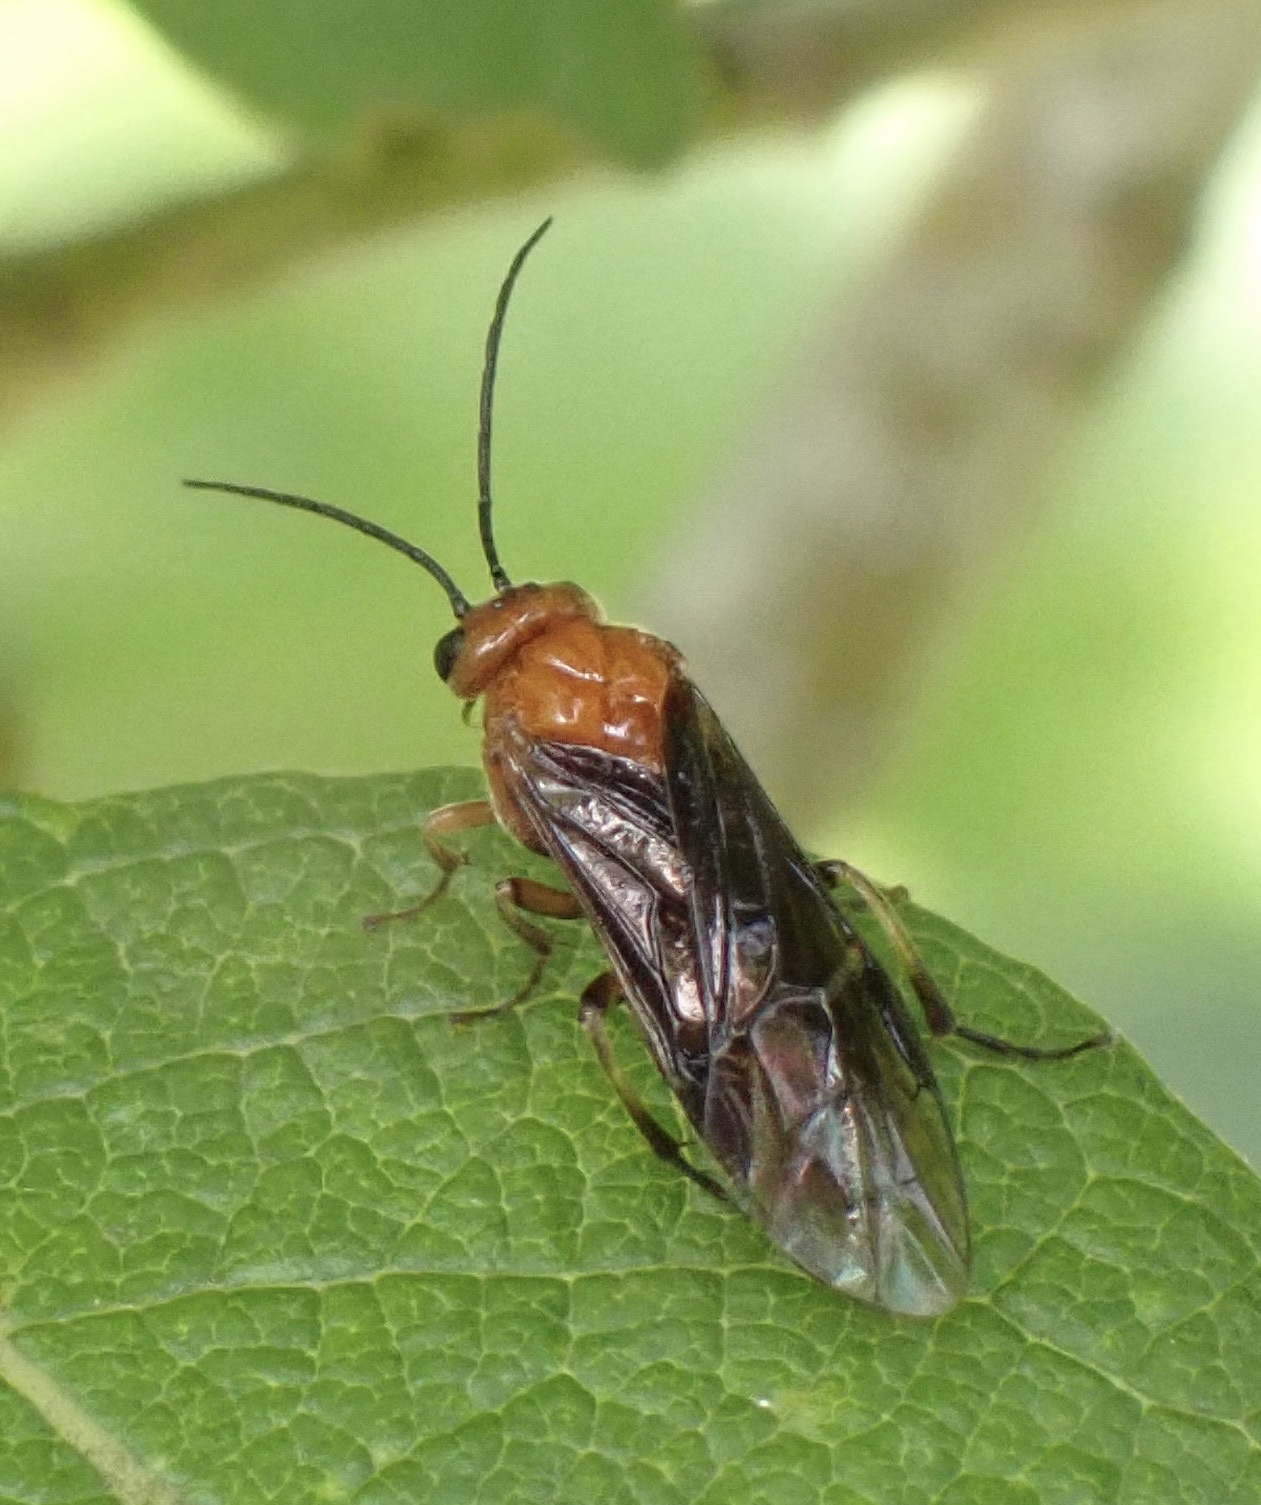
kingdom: Animalia
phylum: Arthropoda
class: Insecta
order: Hymenoptera
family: Tenthredinidae
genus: Hemichroa
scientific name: Hemichroa crocea
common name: Striped alder sawfly
